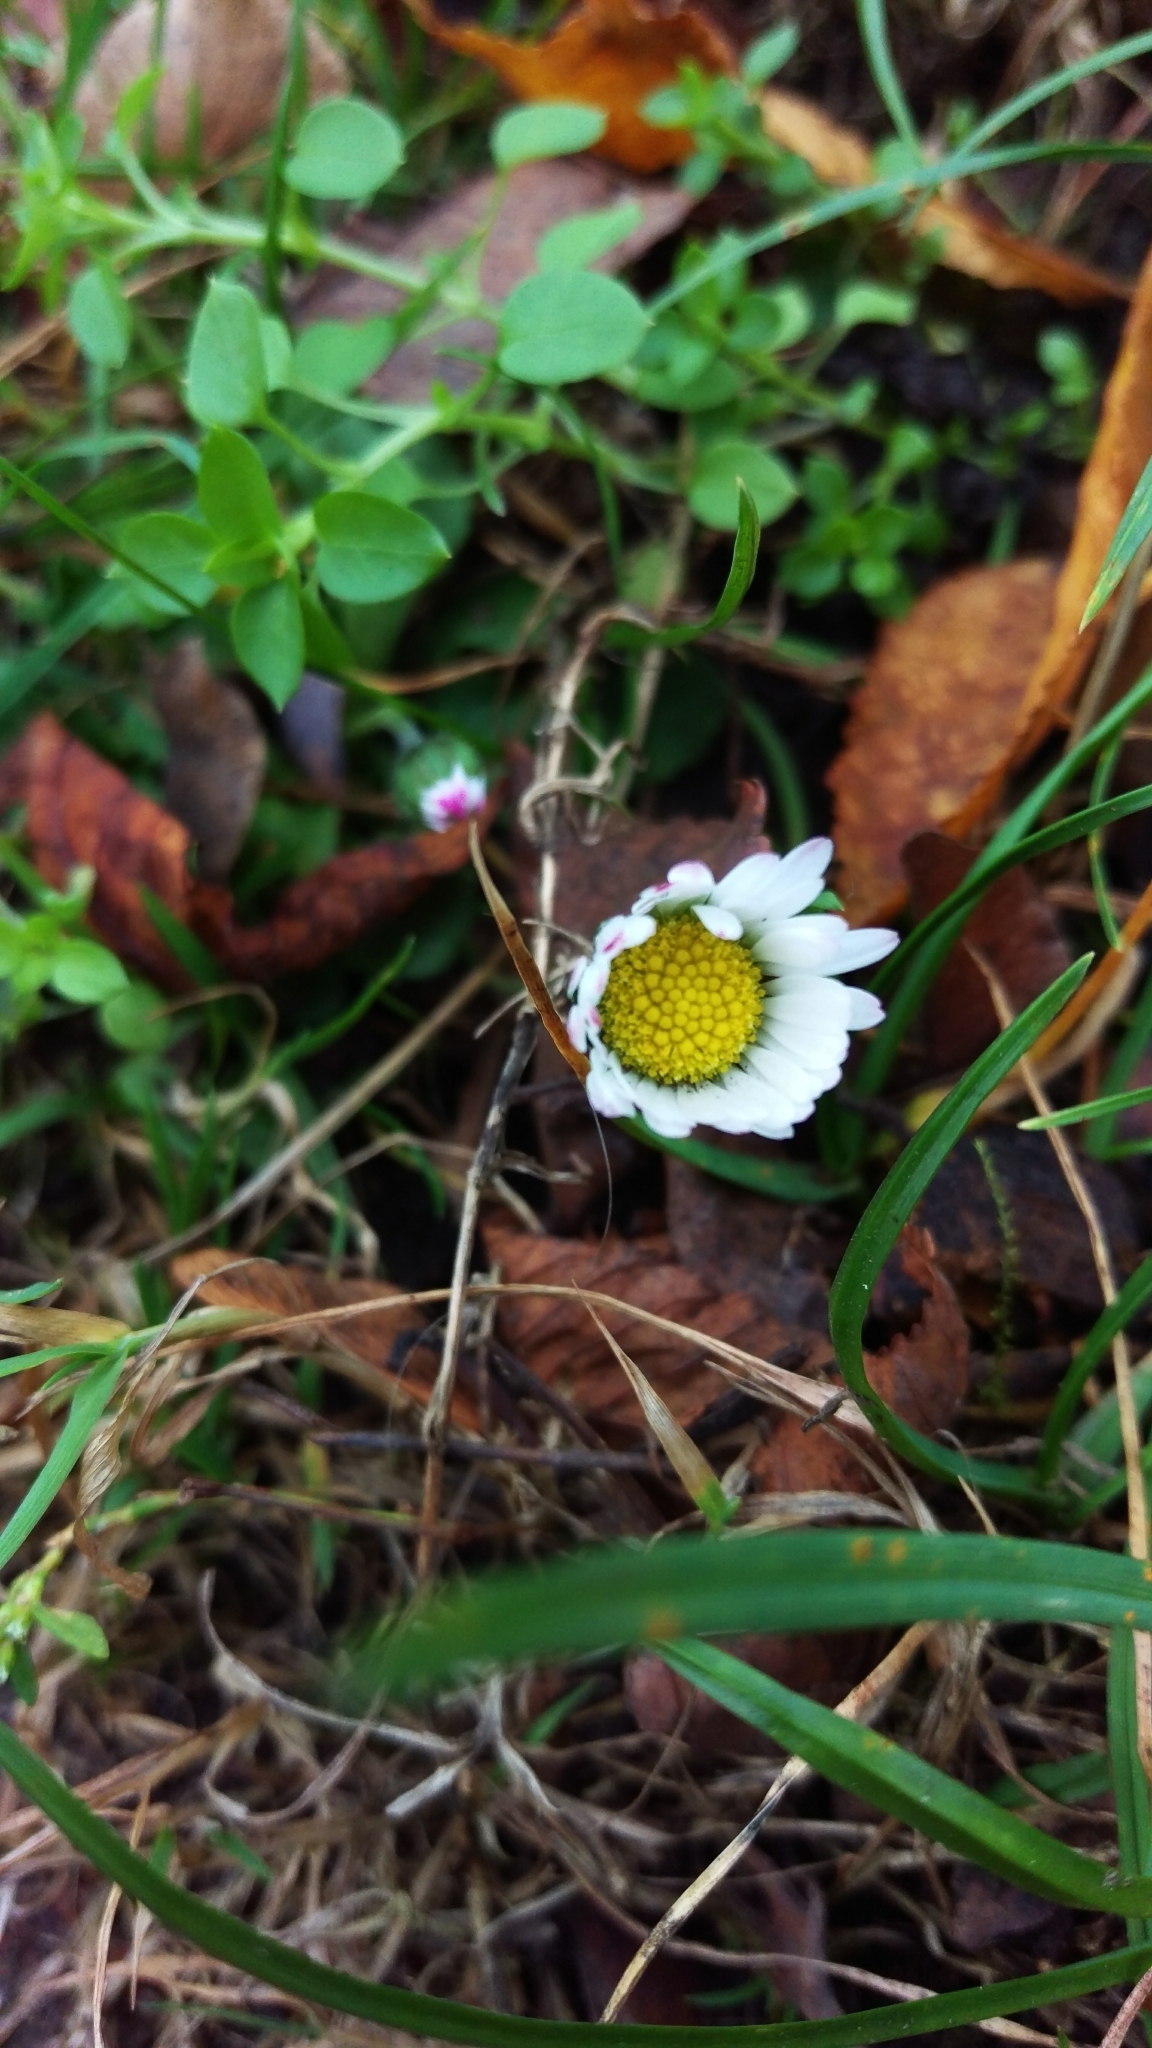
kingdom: Plantae
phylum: Tracheophyta
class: Magnoliopsida
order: Asterales
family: Asteraceae
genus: Bellis
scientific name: Bellis perennis
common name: Lawndaisy
